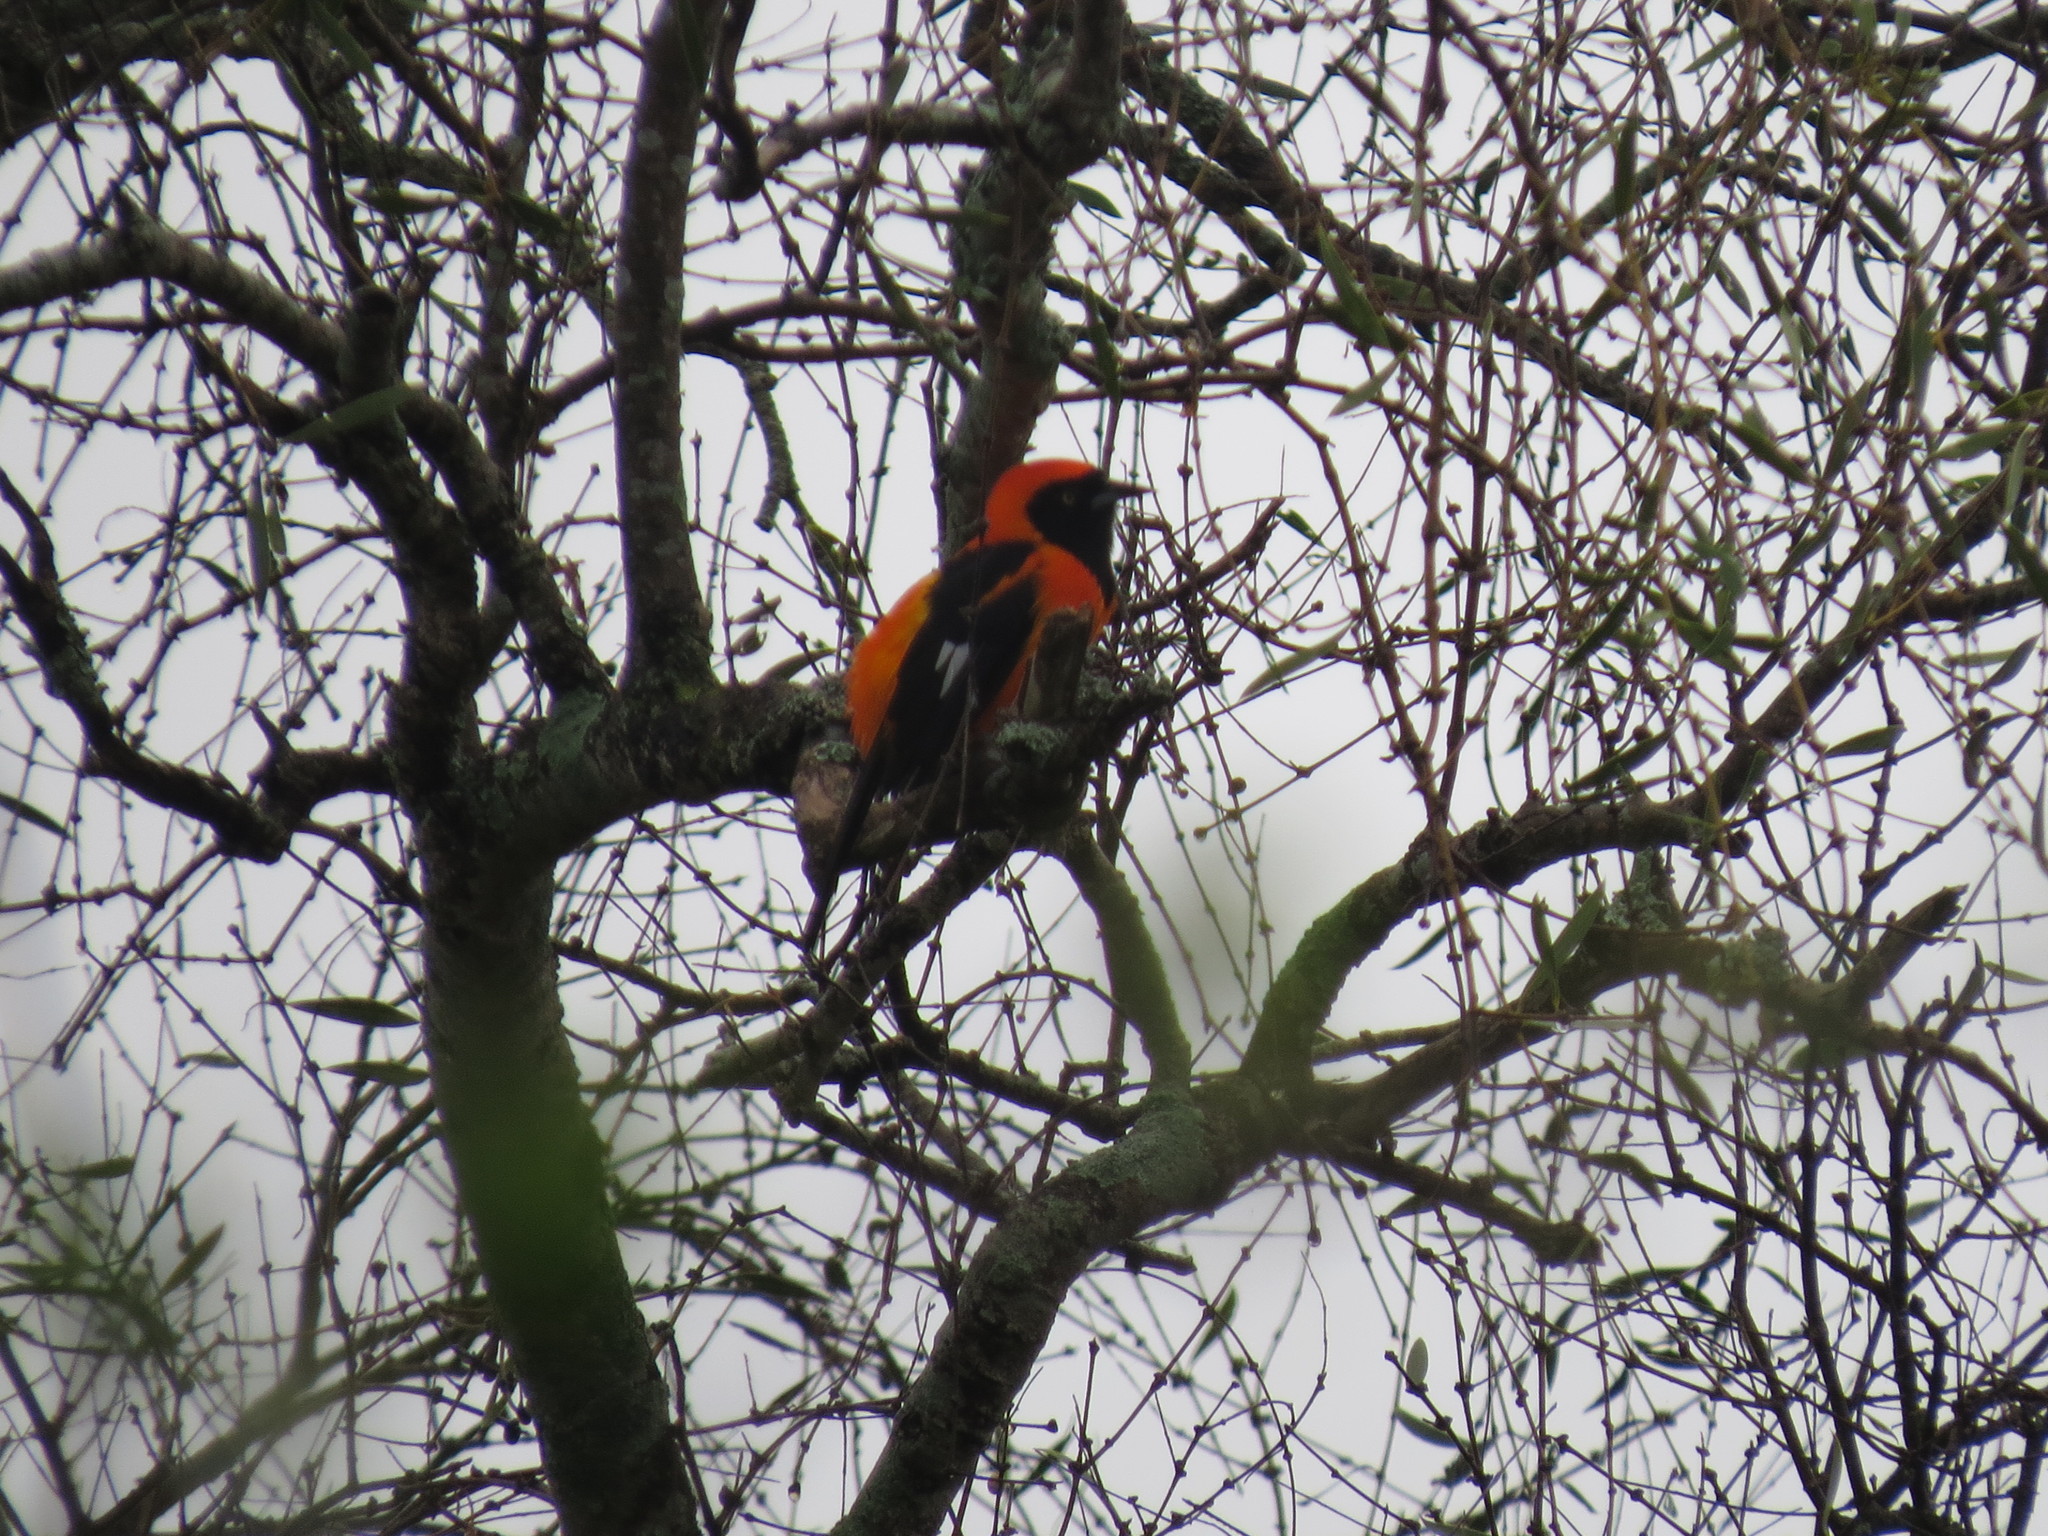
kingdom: Animalia
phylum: Chordata
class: Aves
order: Passeriformes
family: Icteridae
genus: Icterus
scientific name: Icterus icterus
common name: Venezuelan troupial
